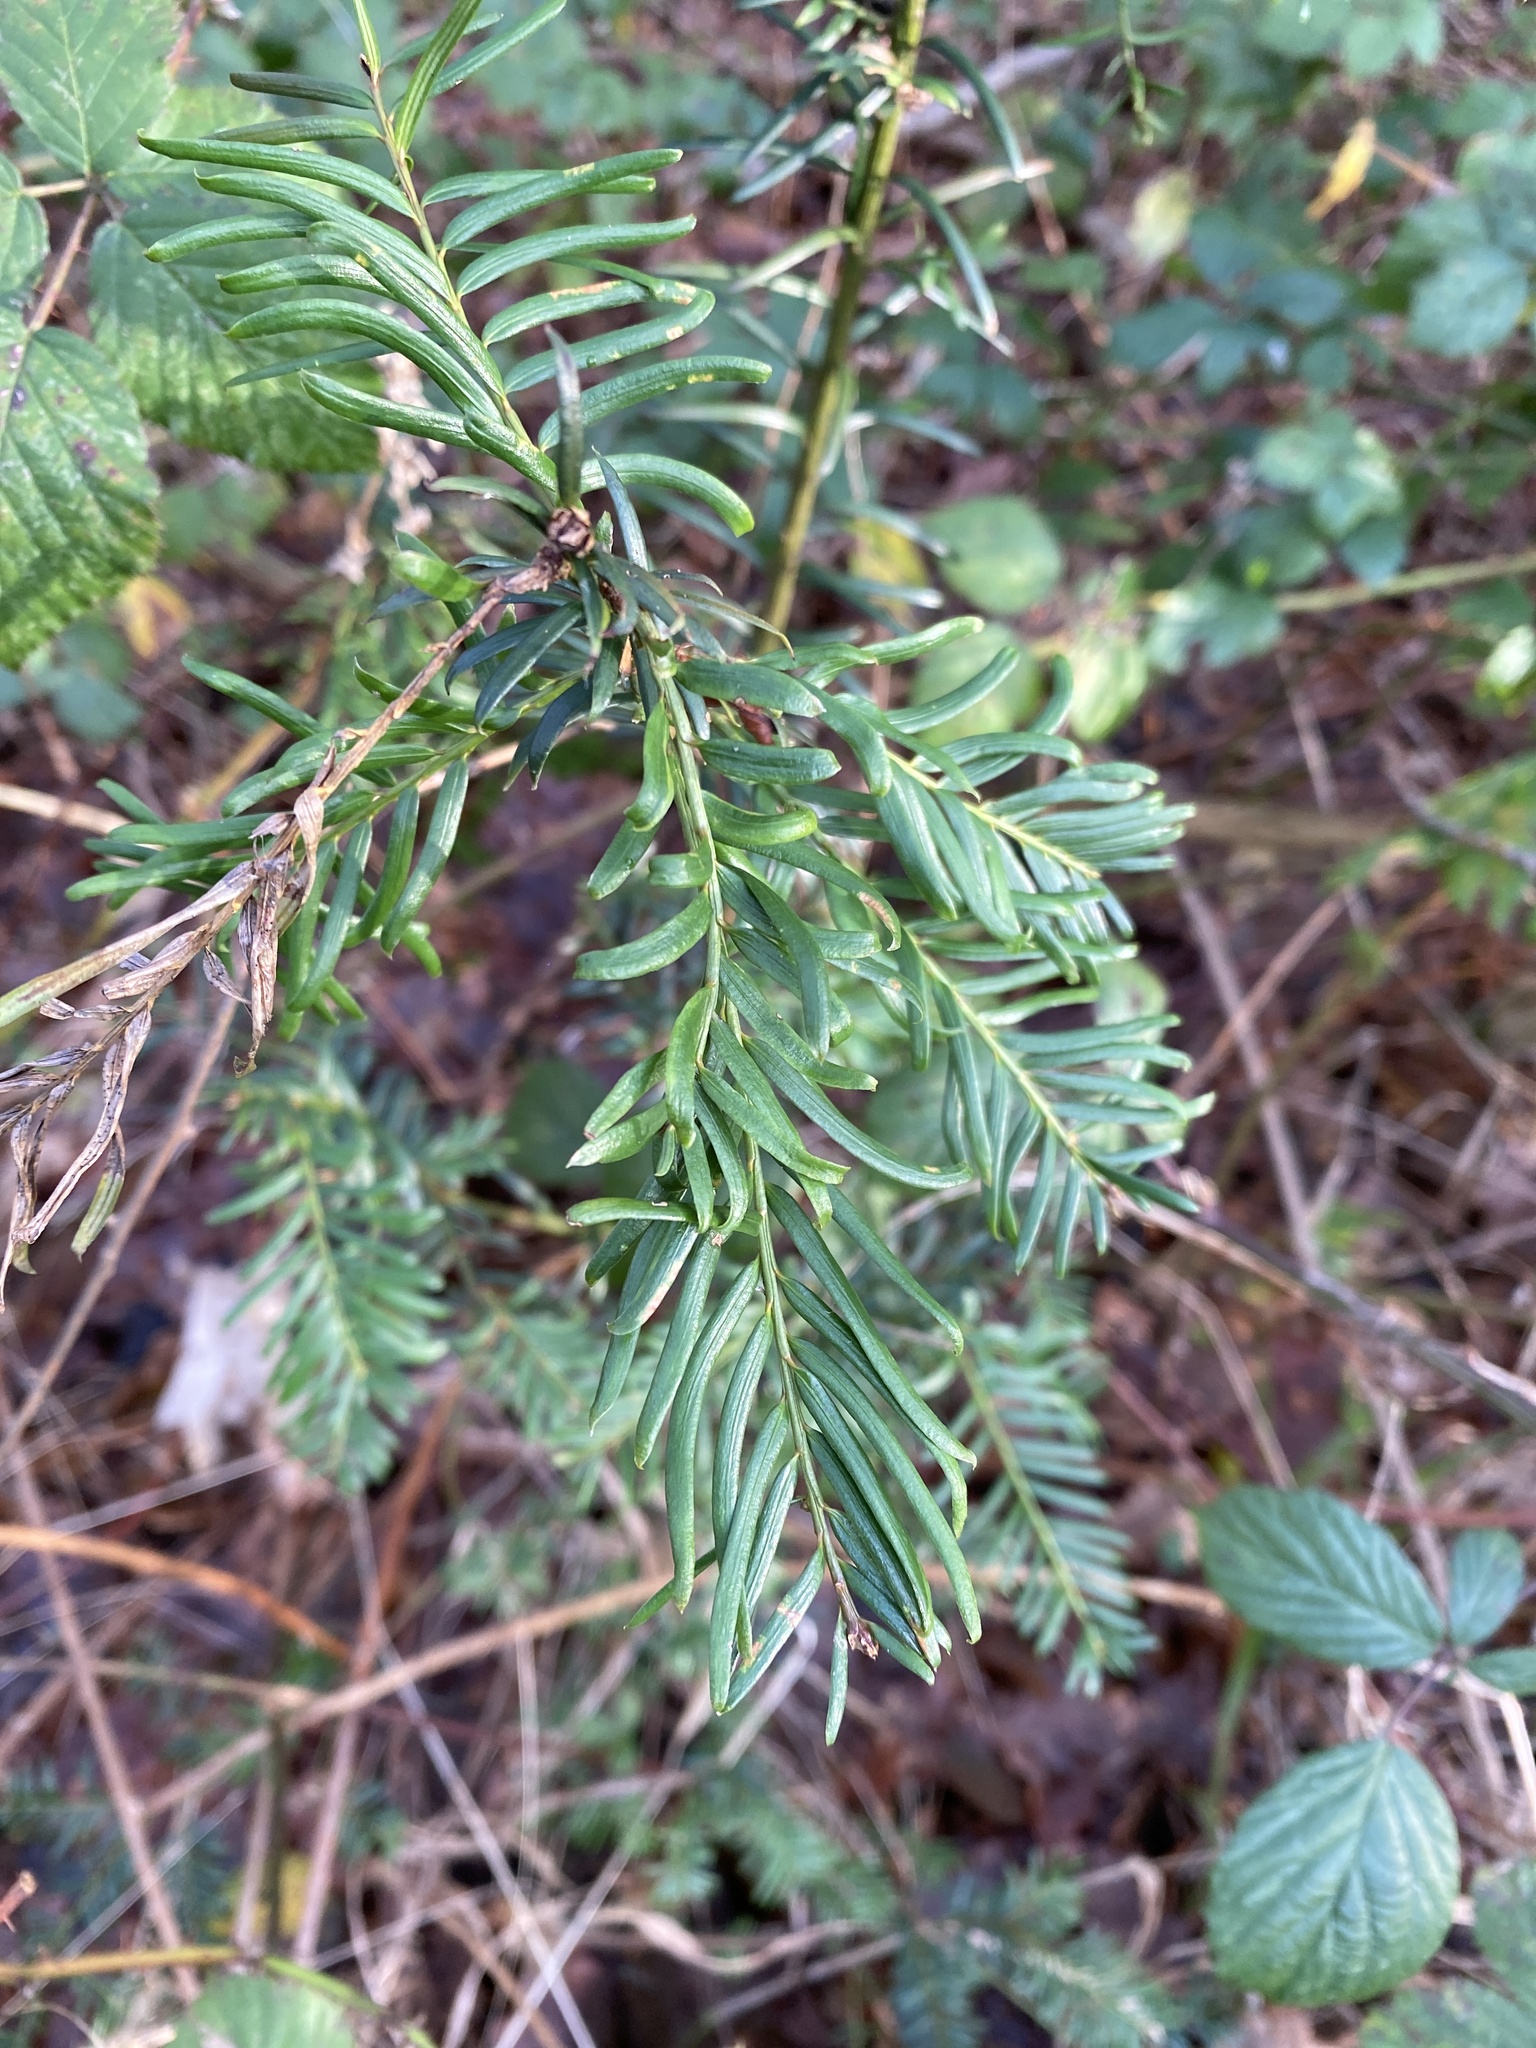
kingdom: Plantae
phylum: Tracheophyta
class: Pinopsida
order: Pinales
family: Taxaceae
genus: Taxus
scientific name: Taxus baccata
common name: Yew
